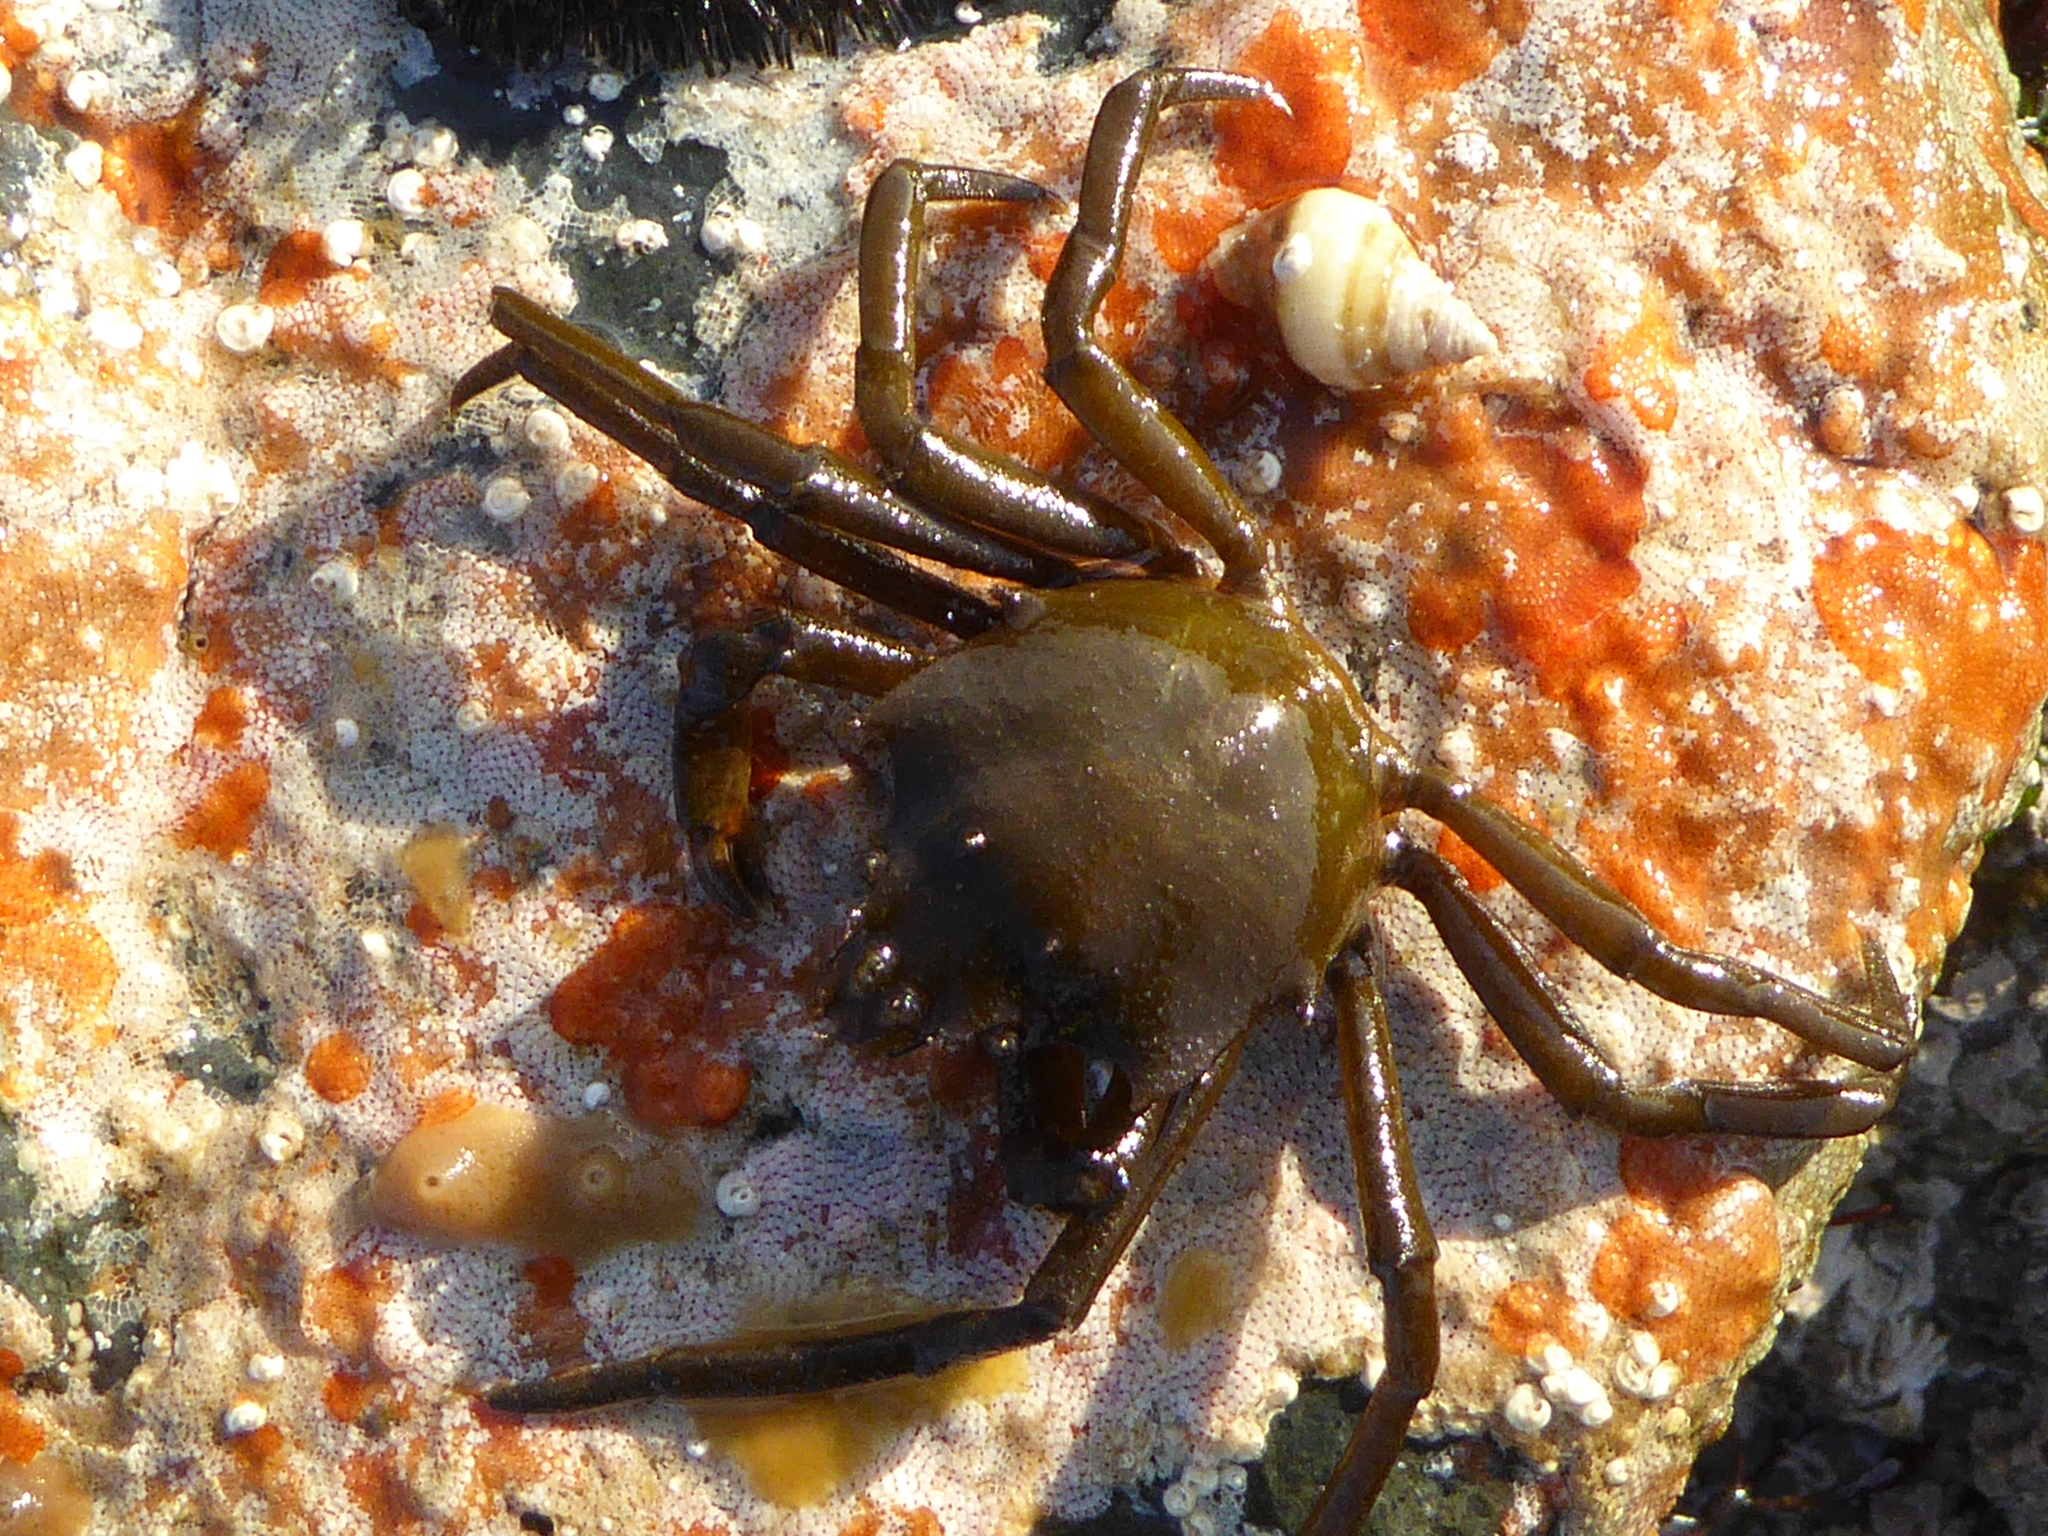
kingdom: Animalia
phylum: Arthropoda
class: Malacostraca
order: Decapoda
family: Epialtidae
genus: Pugettia
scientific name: Pugettia producta
